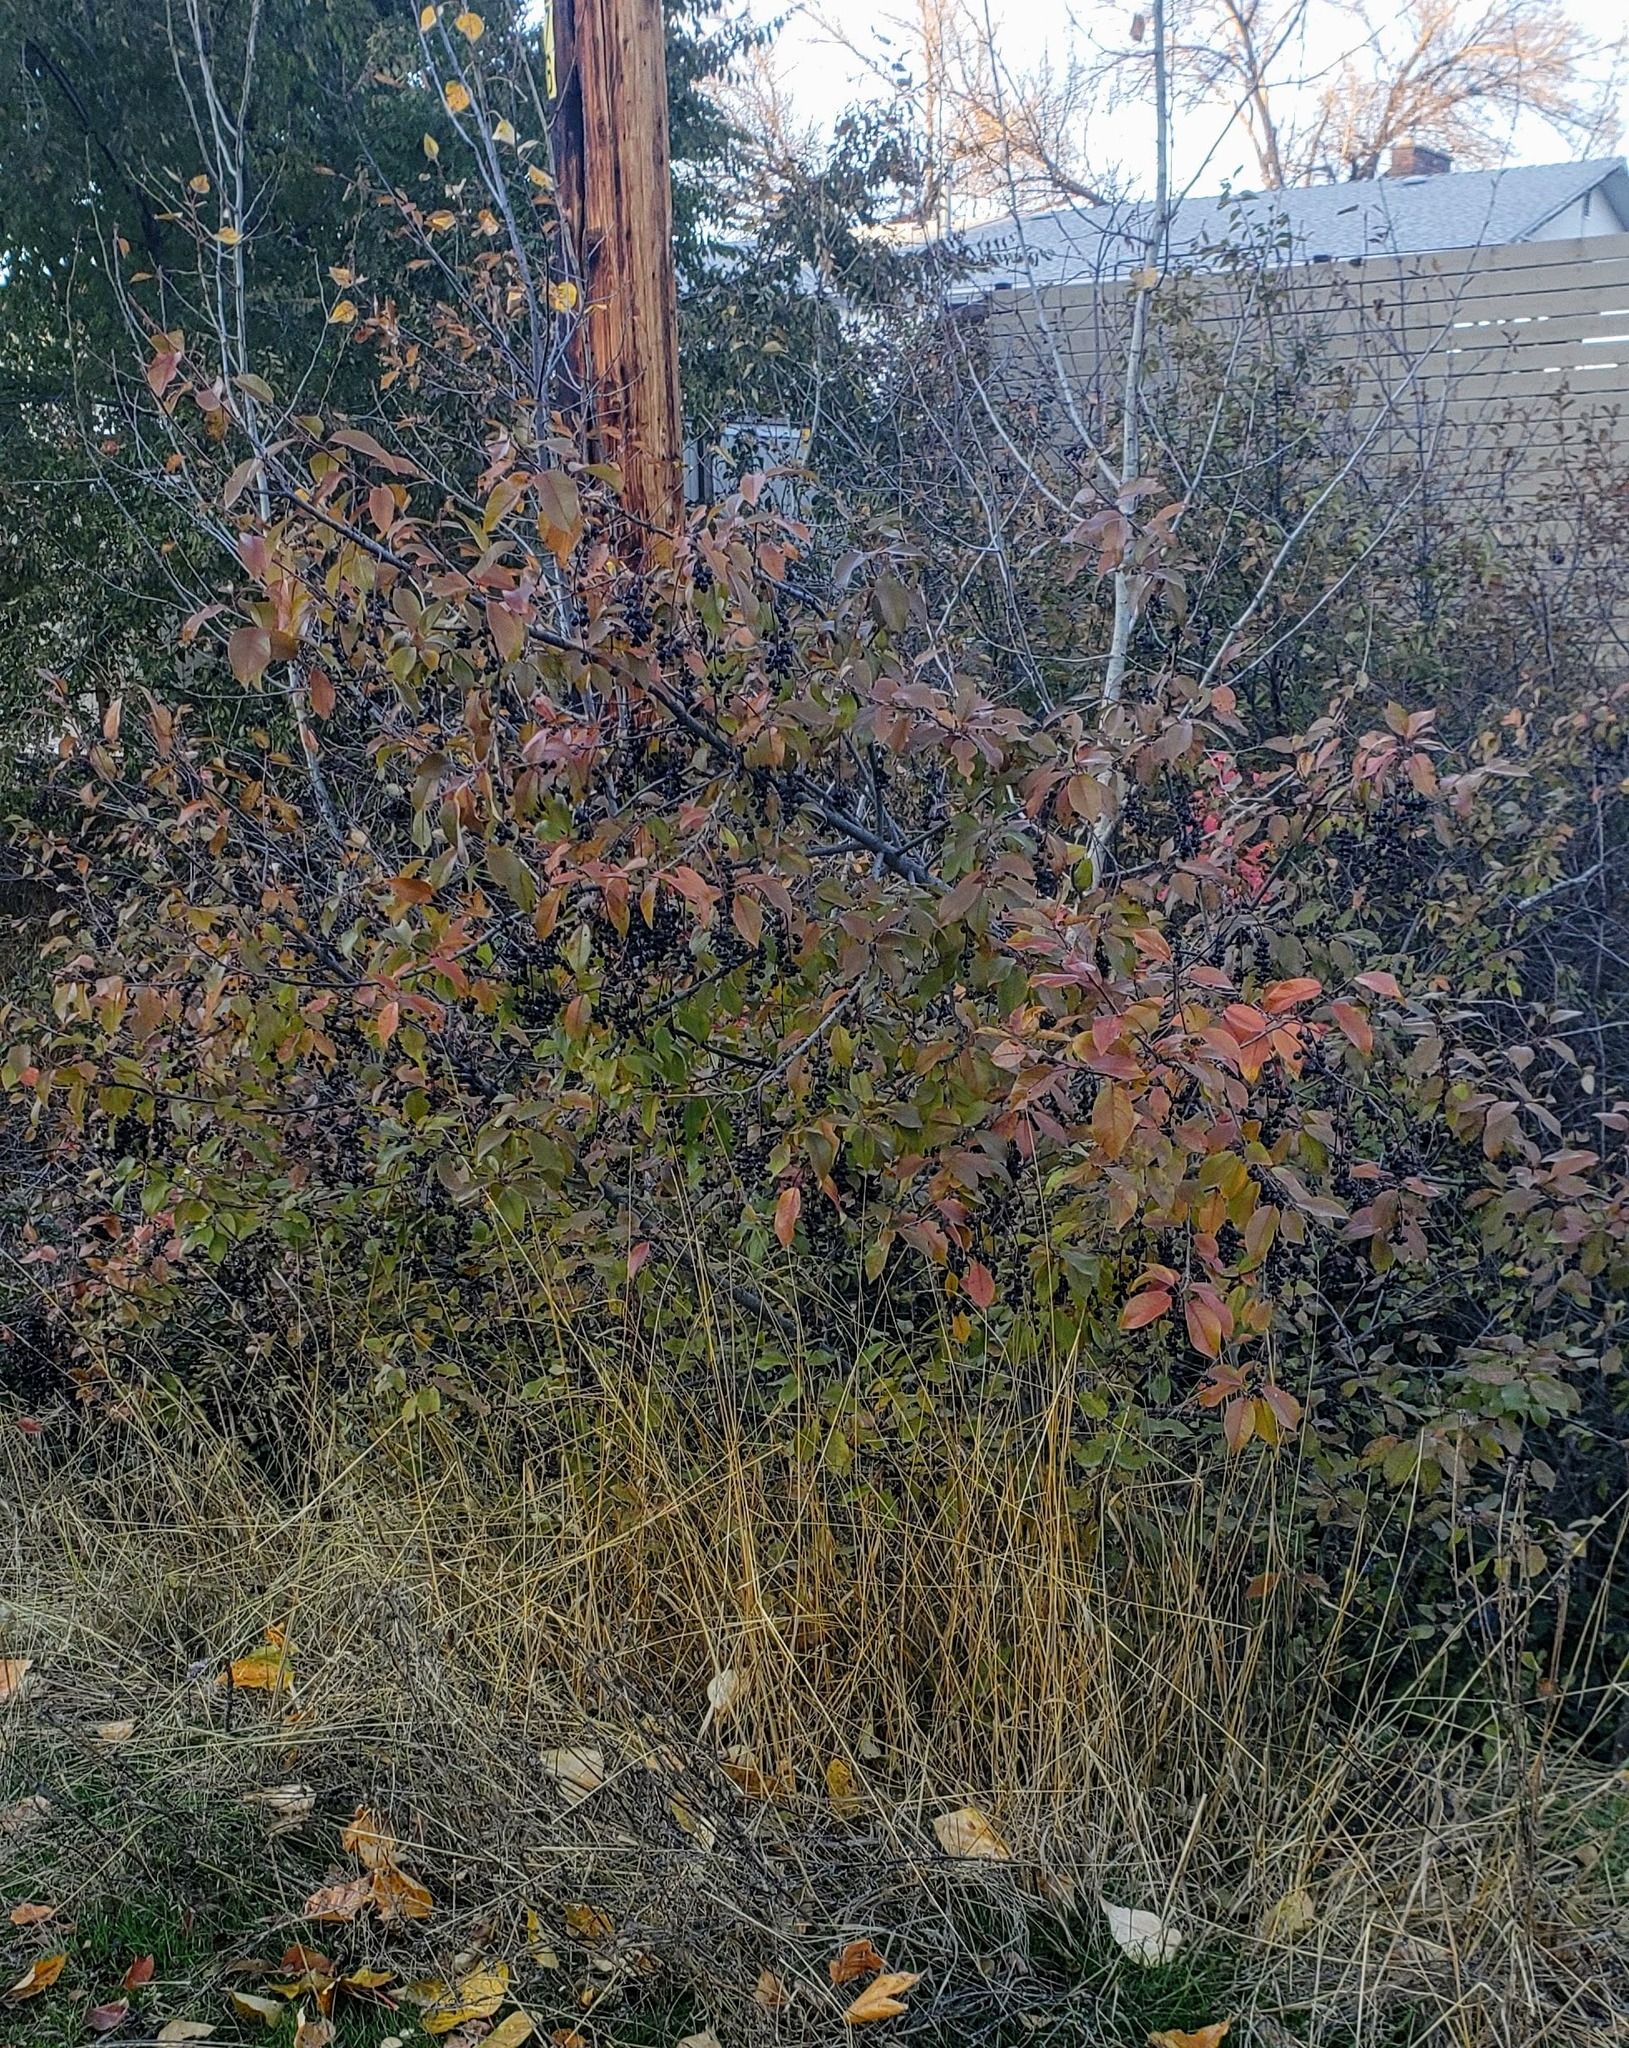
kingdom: Plantae
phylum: Tracheophyta
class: Magnoliopsida
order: Rosales
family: Rosaceae
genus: Prunus
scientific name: Prunus virginiana
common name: Chokecherry
